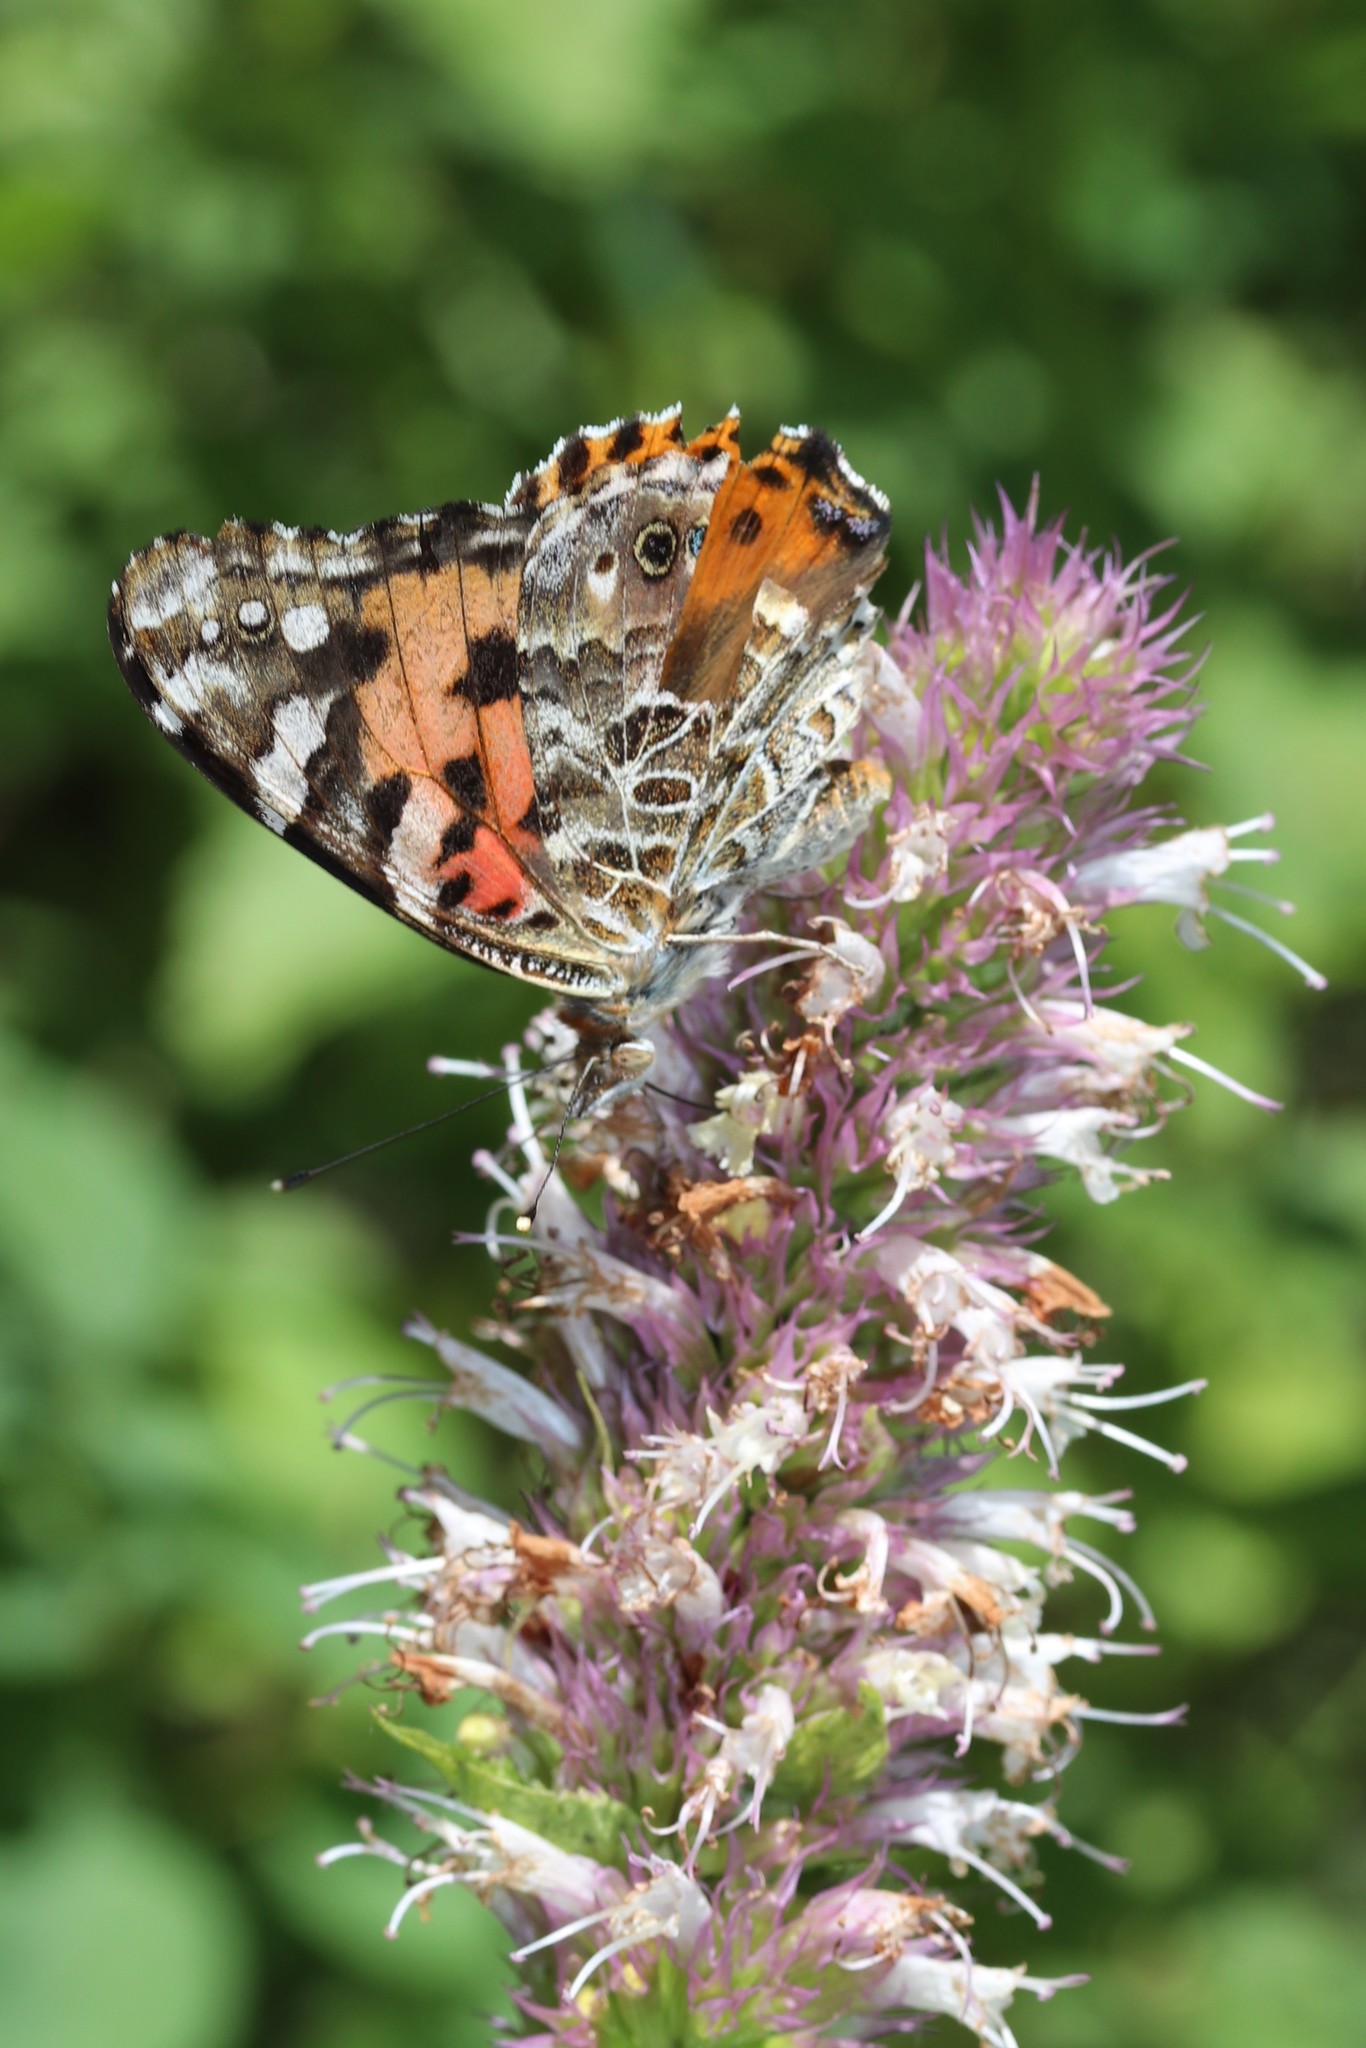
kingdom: Animalia
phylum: Arthropoda
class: Insecta
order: Lepidoptera
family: Nymphalidae
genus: Vanessa
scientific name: Vanessa cardui
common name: Painted lady
